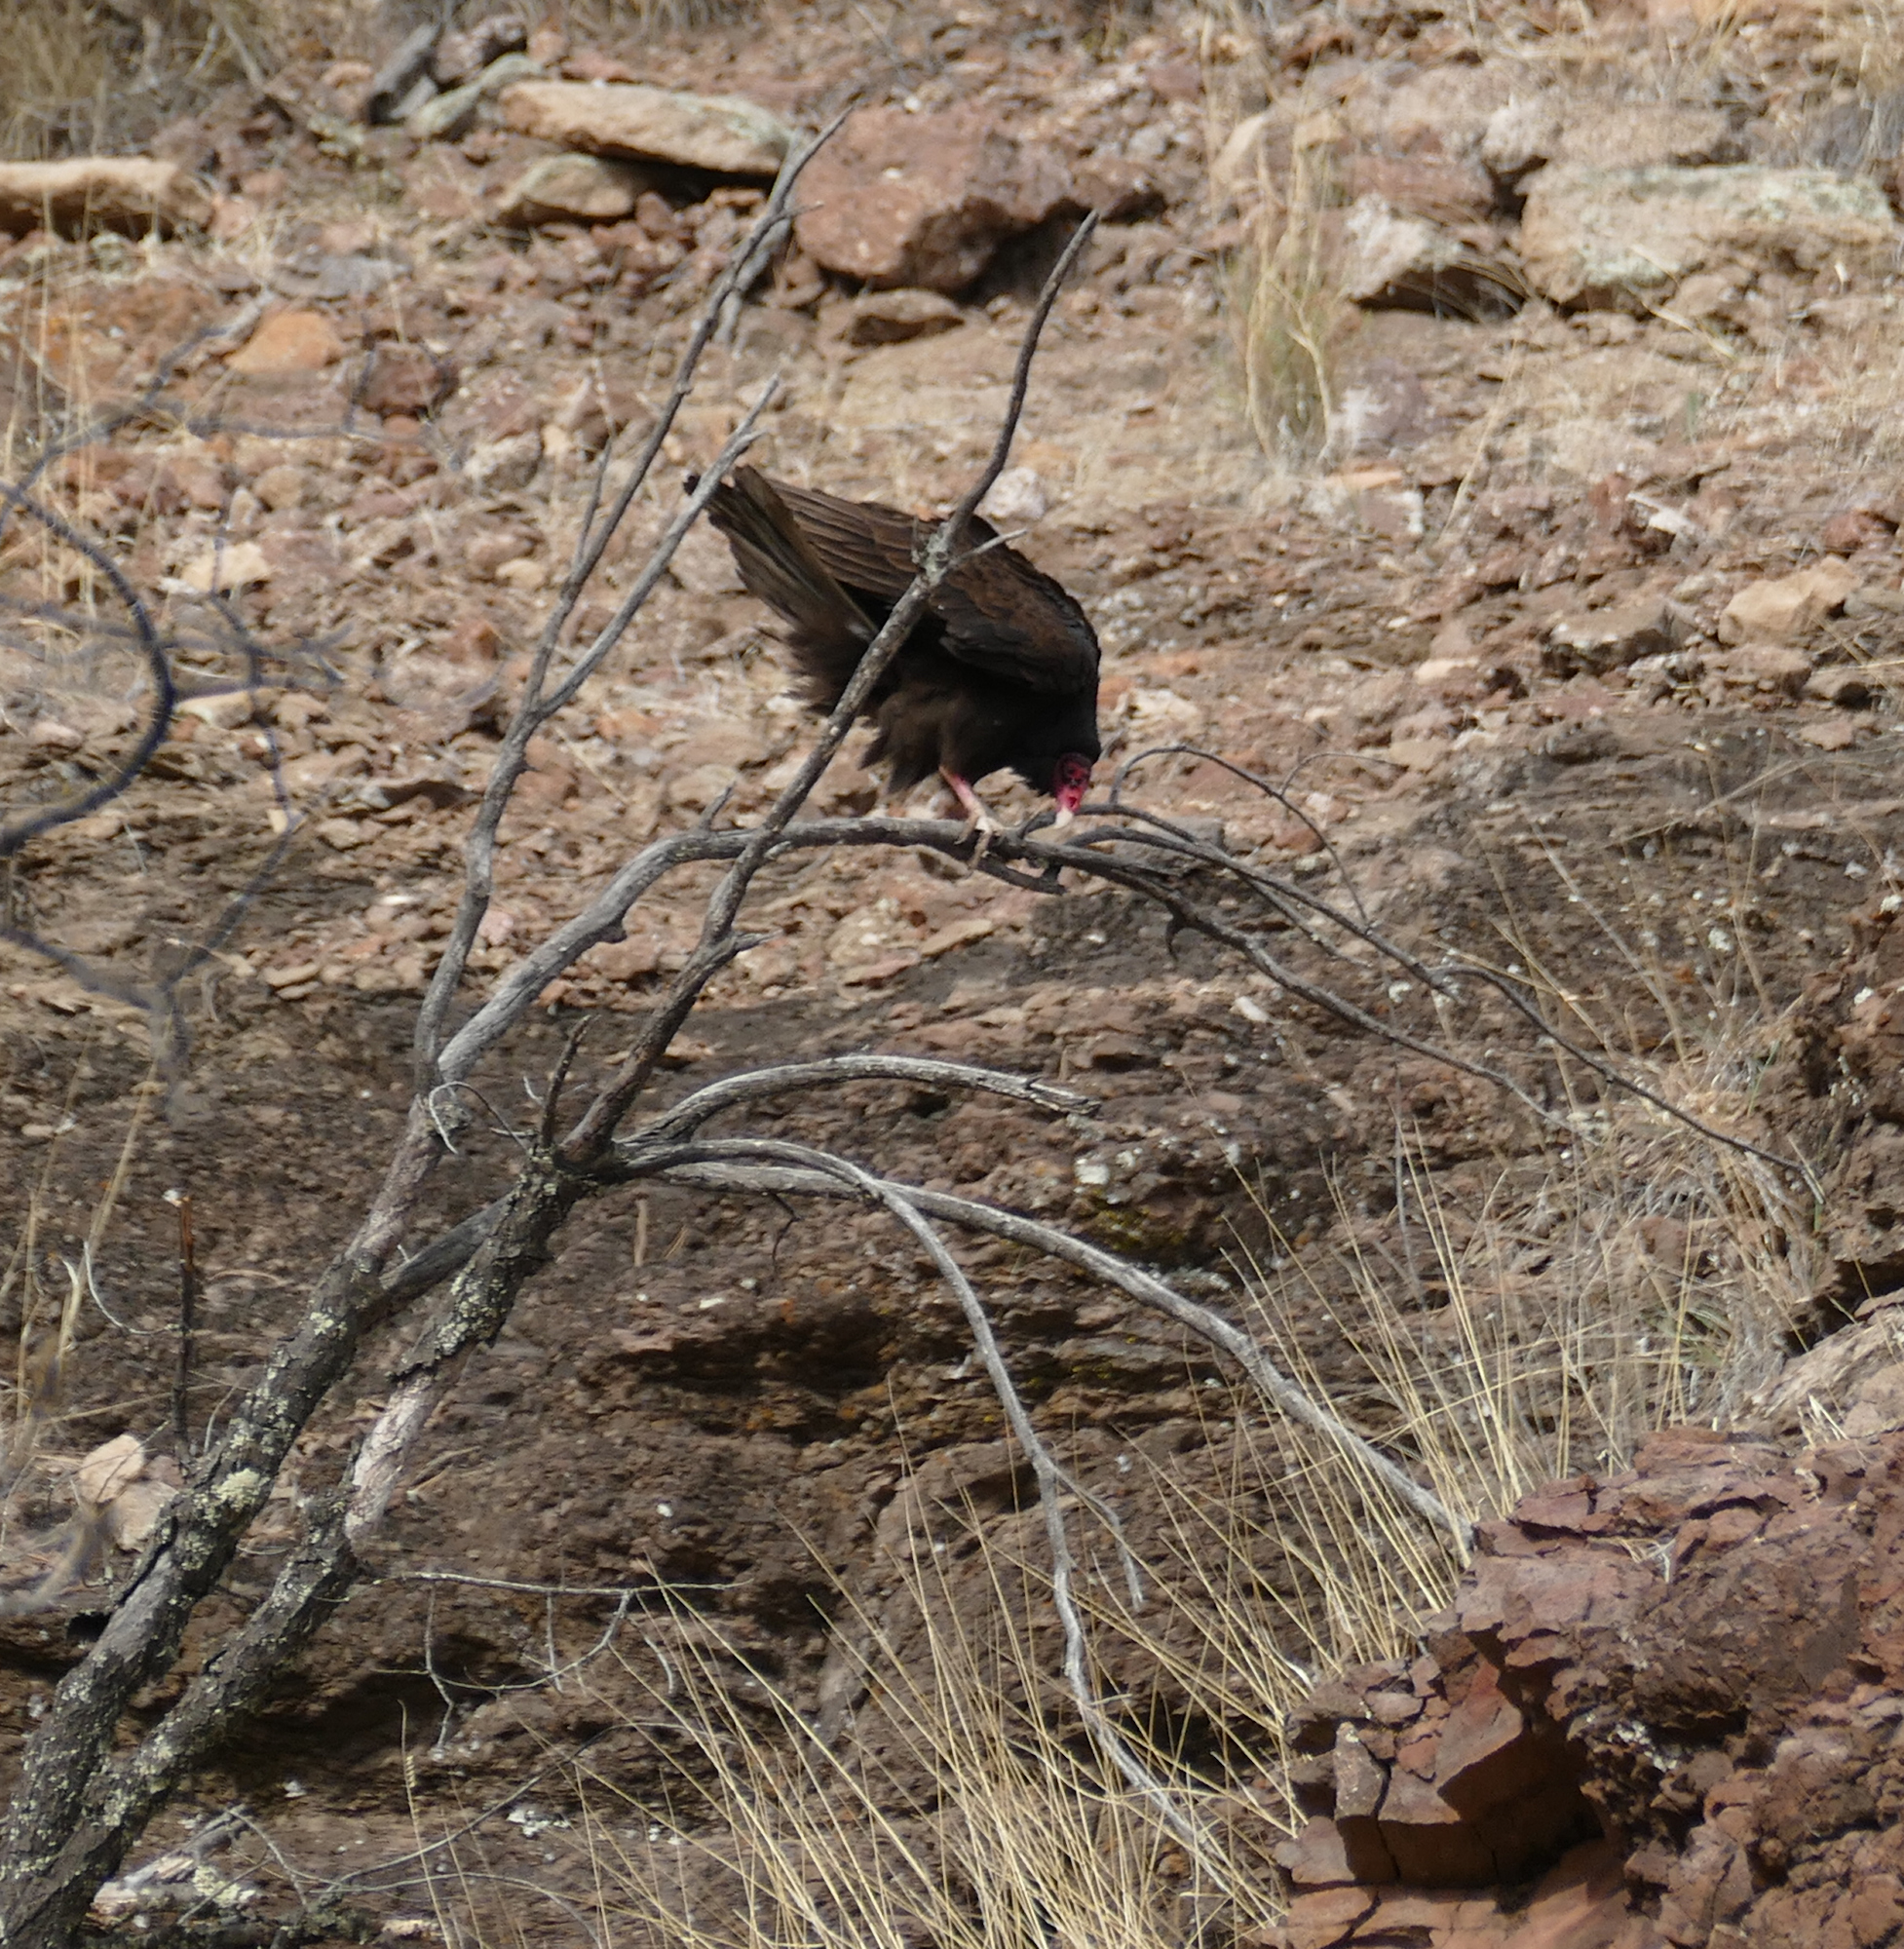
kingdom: Animalia
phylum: Chordata
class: Aves
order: Accipitriformes
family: Cathartidae
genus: Cathartes
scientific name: Cathartes aura
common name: Turkey vulture
